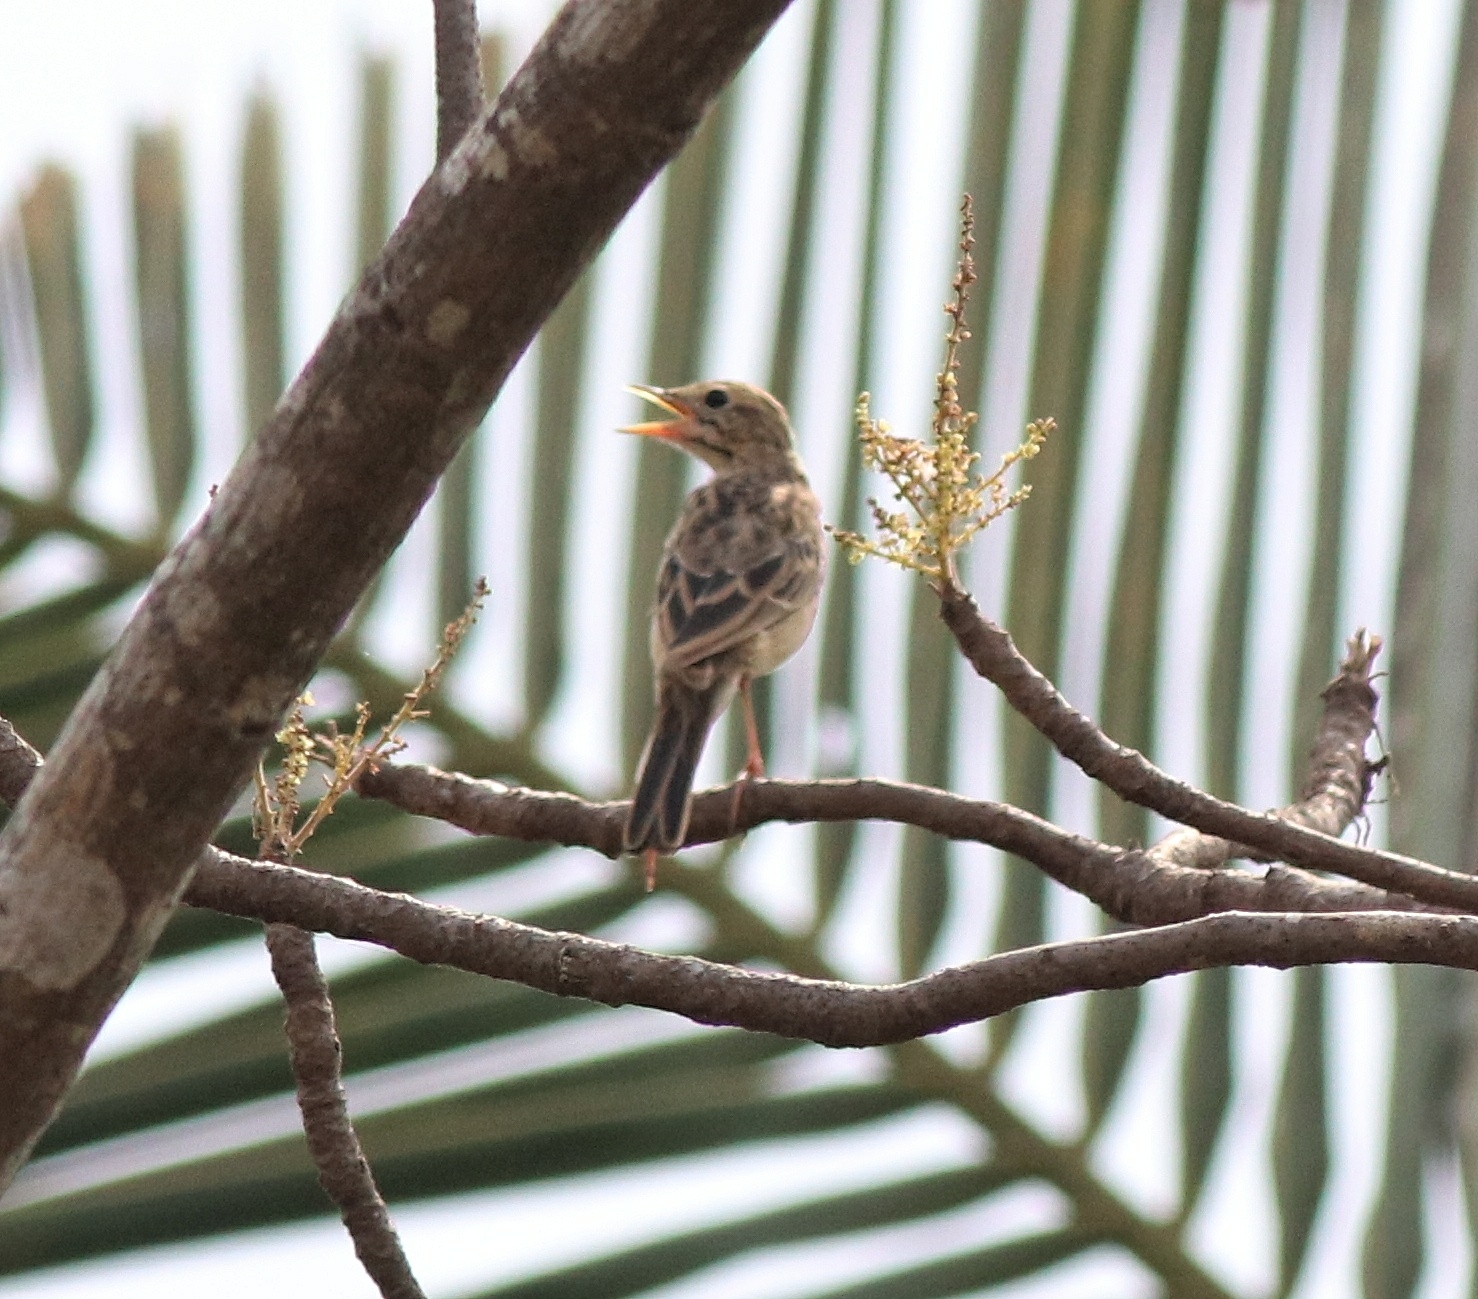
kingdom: Animalia
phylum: Chordata
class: Aves
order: Passeriformes
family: Motacillidae
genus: Anthus
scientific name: Anthus godlewskii
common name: Blyth's pipit
